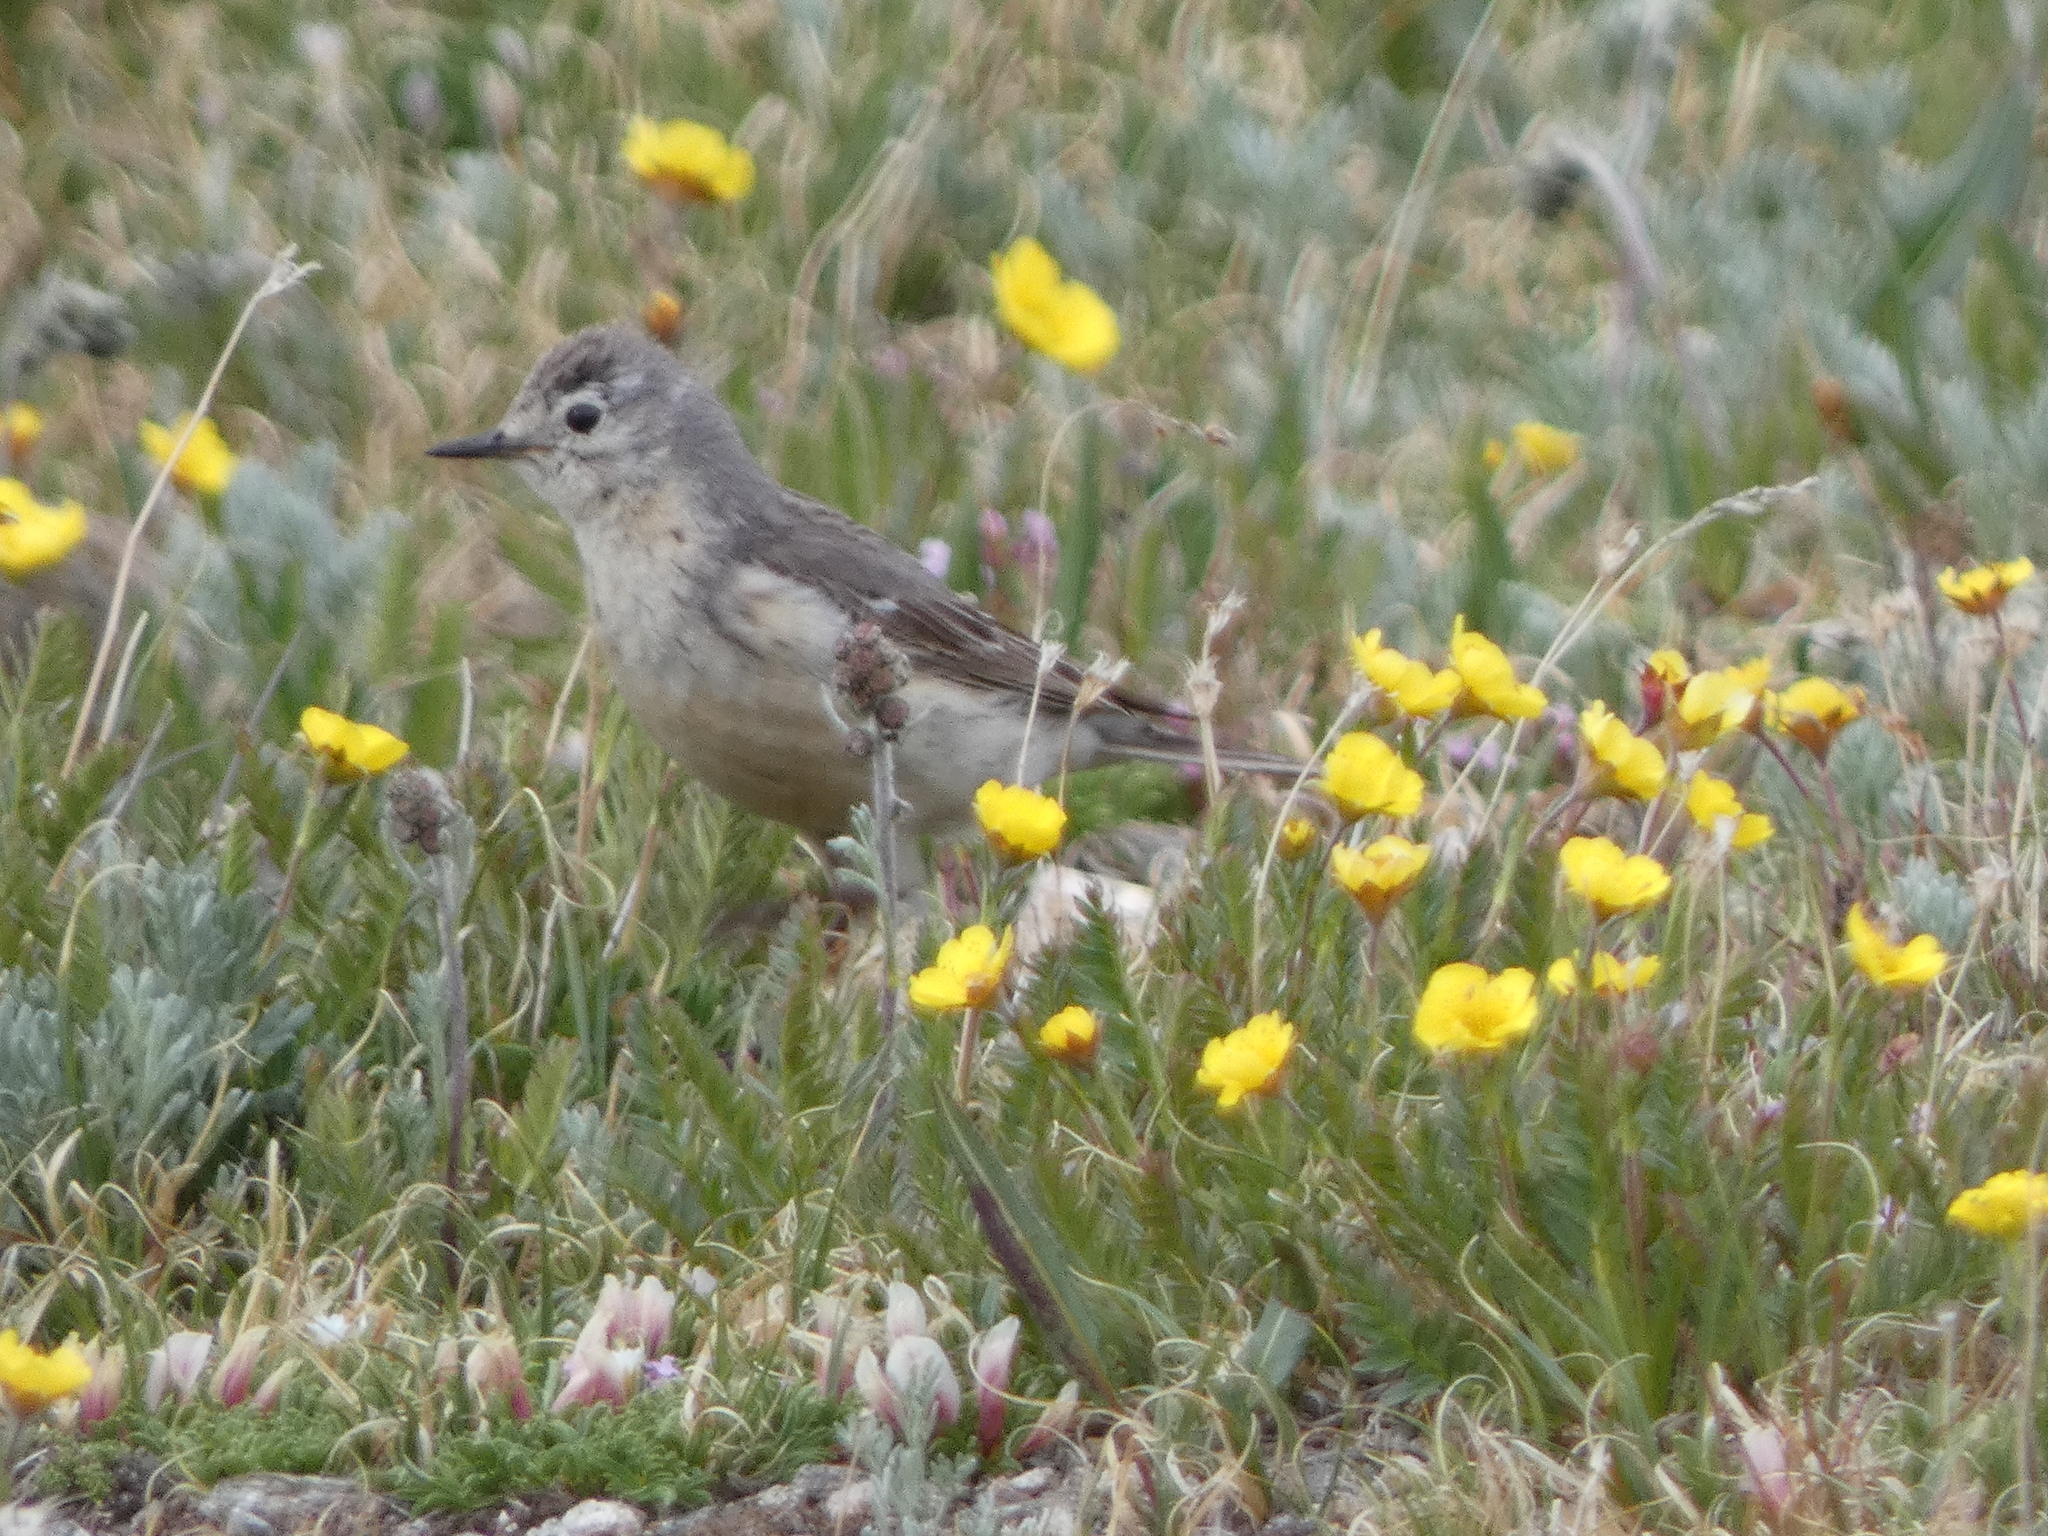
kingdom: Animalia
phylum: Chordata
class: Aves
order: Passeriformes
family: Motacillidae
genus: Anthus
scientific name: Anthus rubescens
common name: Buff-bellied pipit
